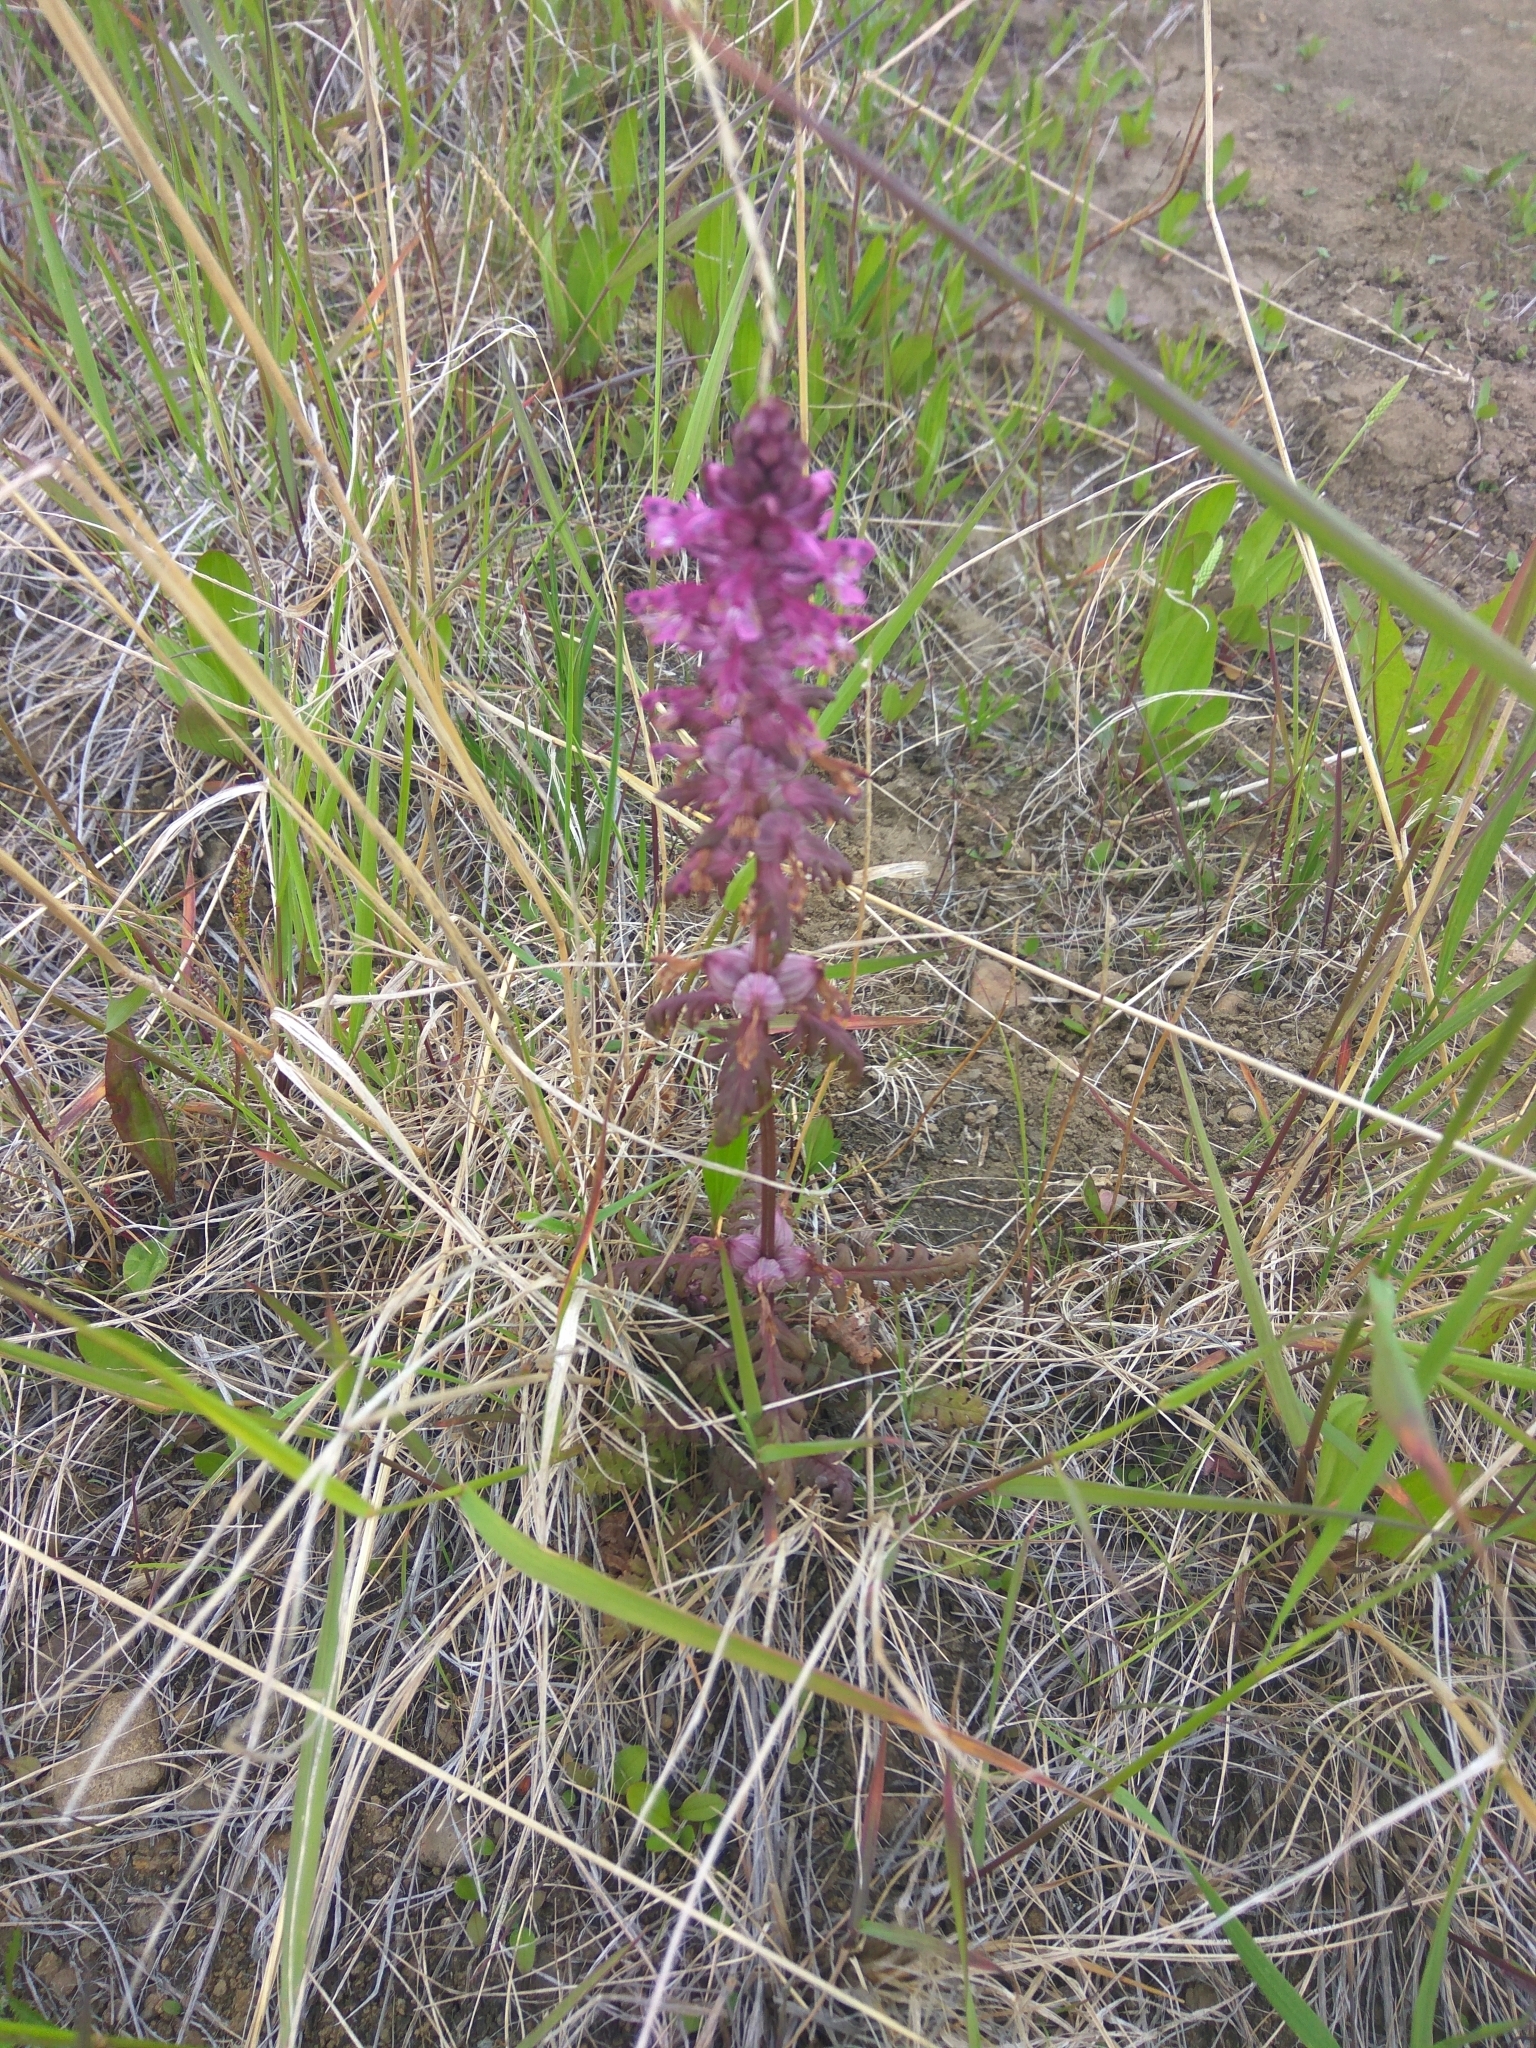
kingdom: Plantae
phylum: Tracheophyta
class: Magnoliopsida
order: Lamiales
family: Orobanchaceae
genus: Pedicularis
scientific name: Pedicularis verticillata
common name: Whorled lousewort
